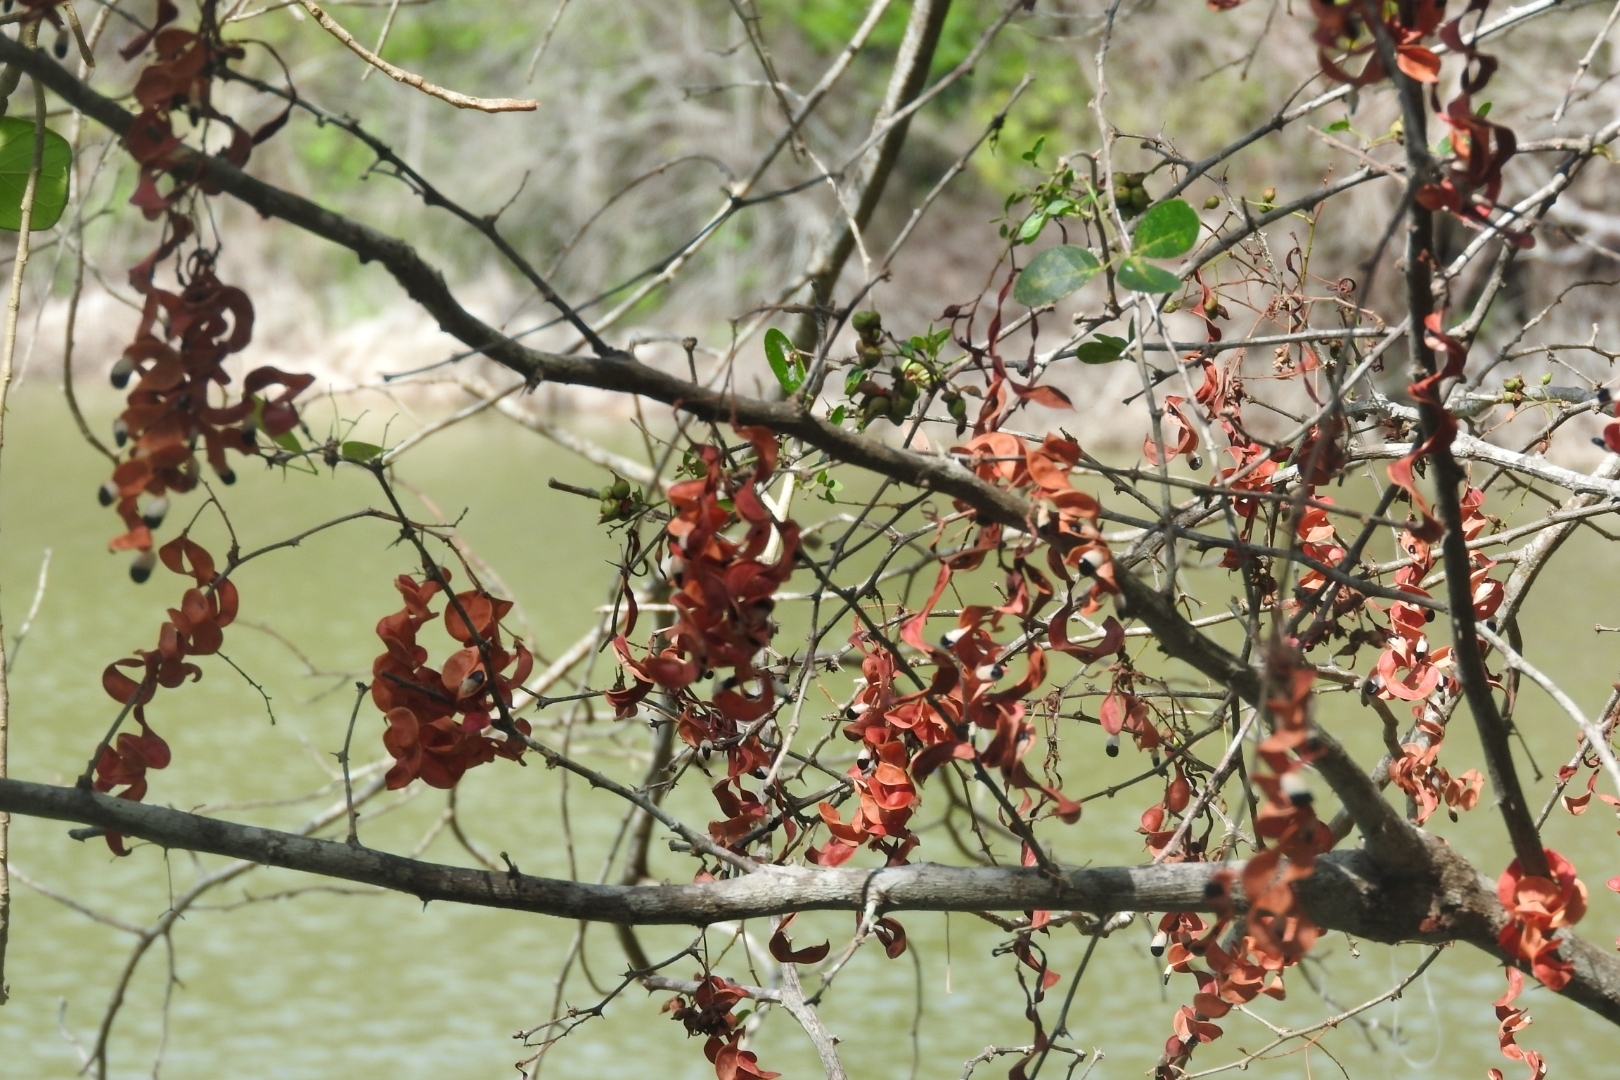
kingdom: Plantae
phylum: Tracheophyta
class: Magnoliopsida
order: Fabales
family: Fabaceae
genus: Pithecellobium
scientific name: Pithecellobium dulce
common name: Monkeypod
